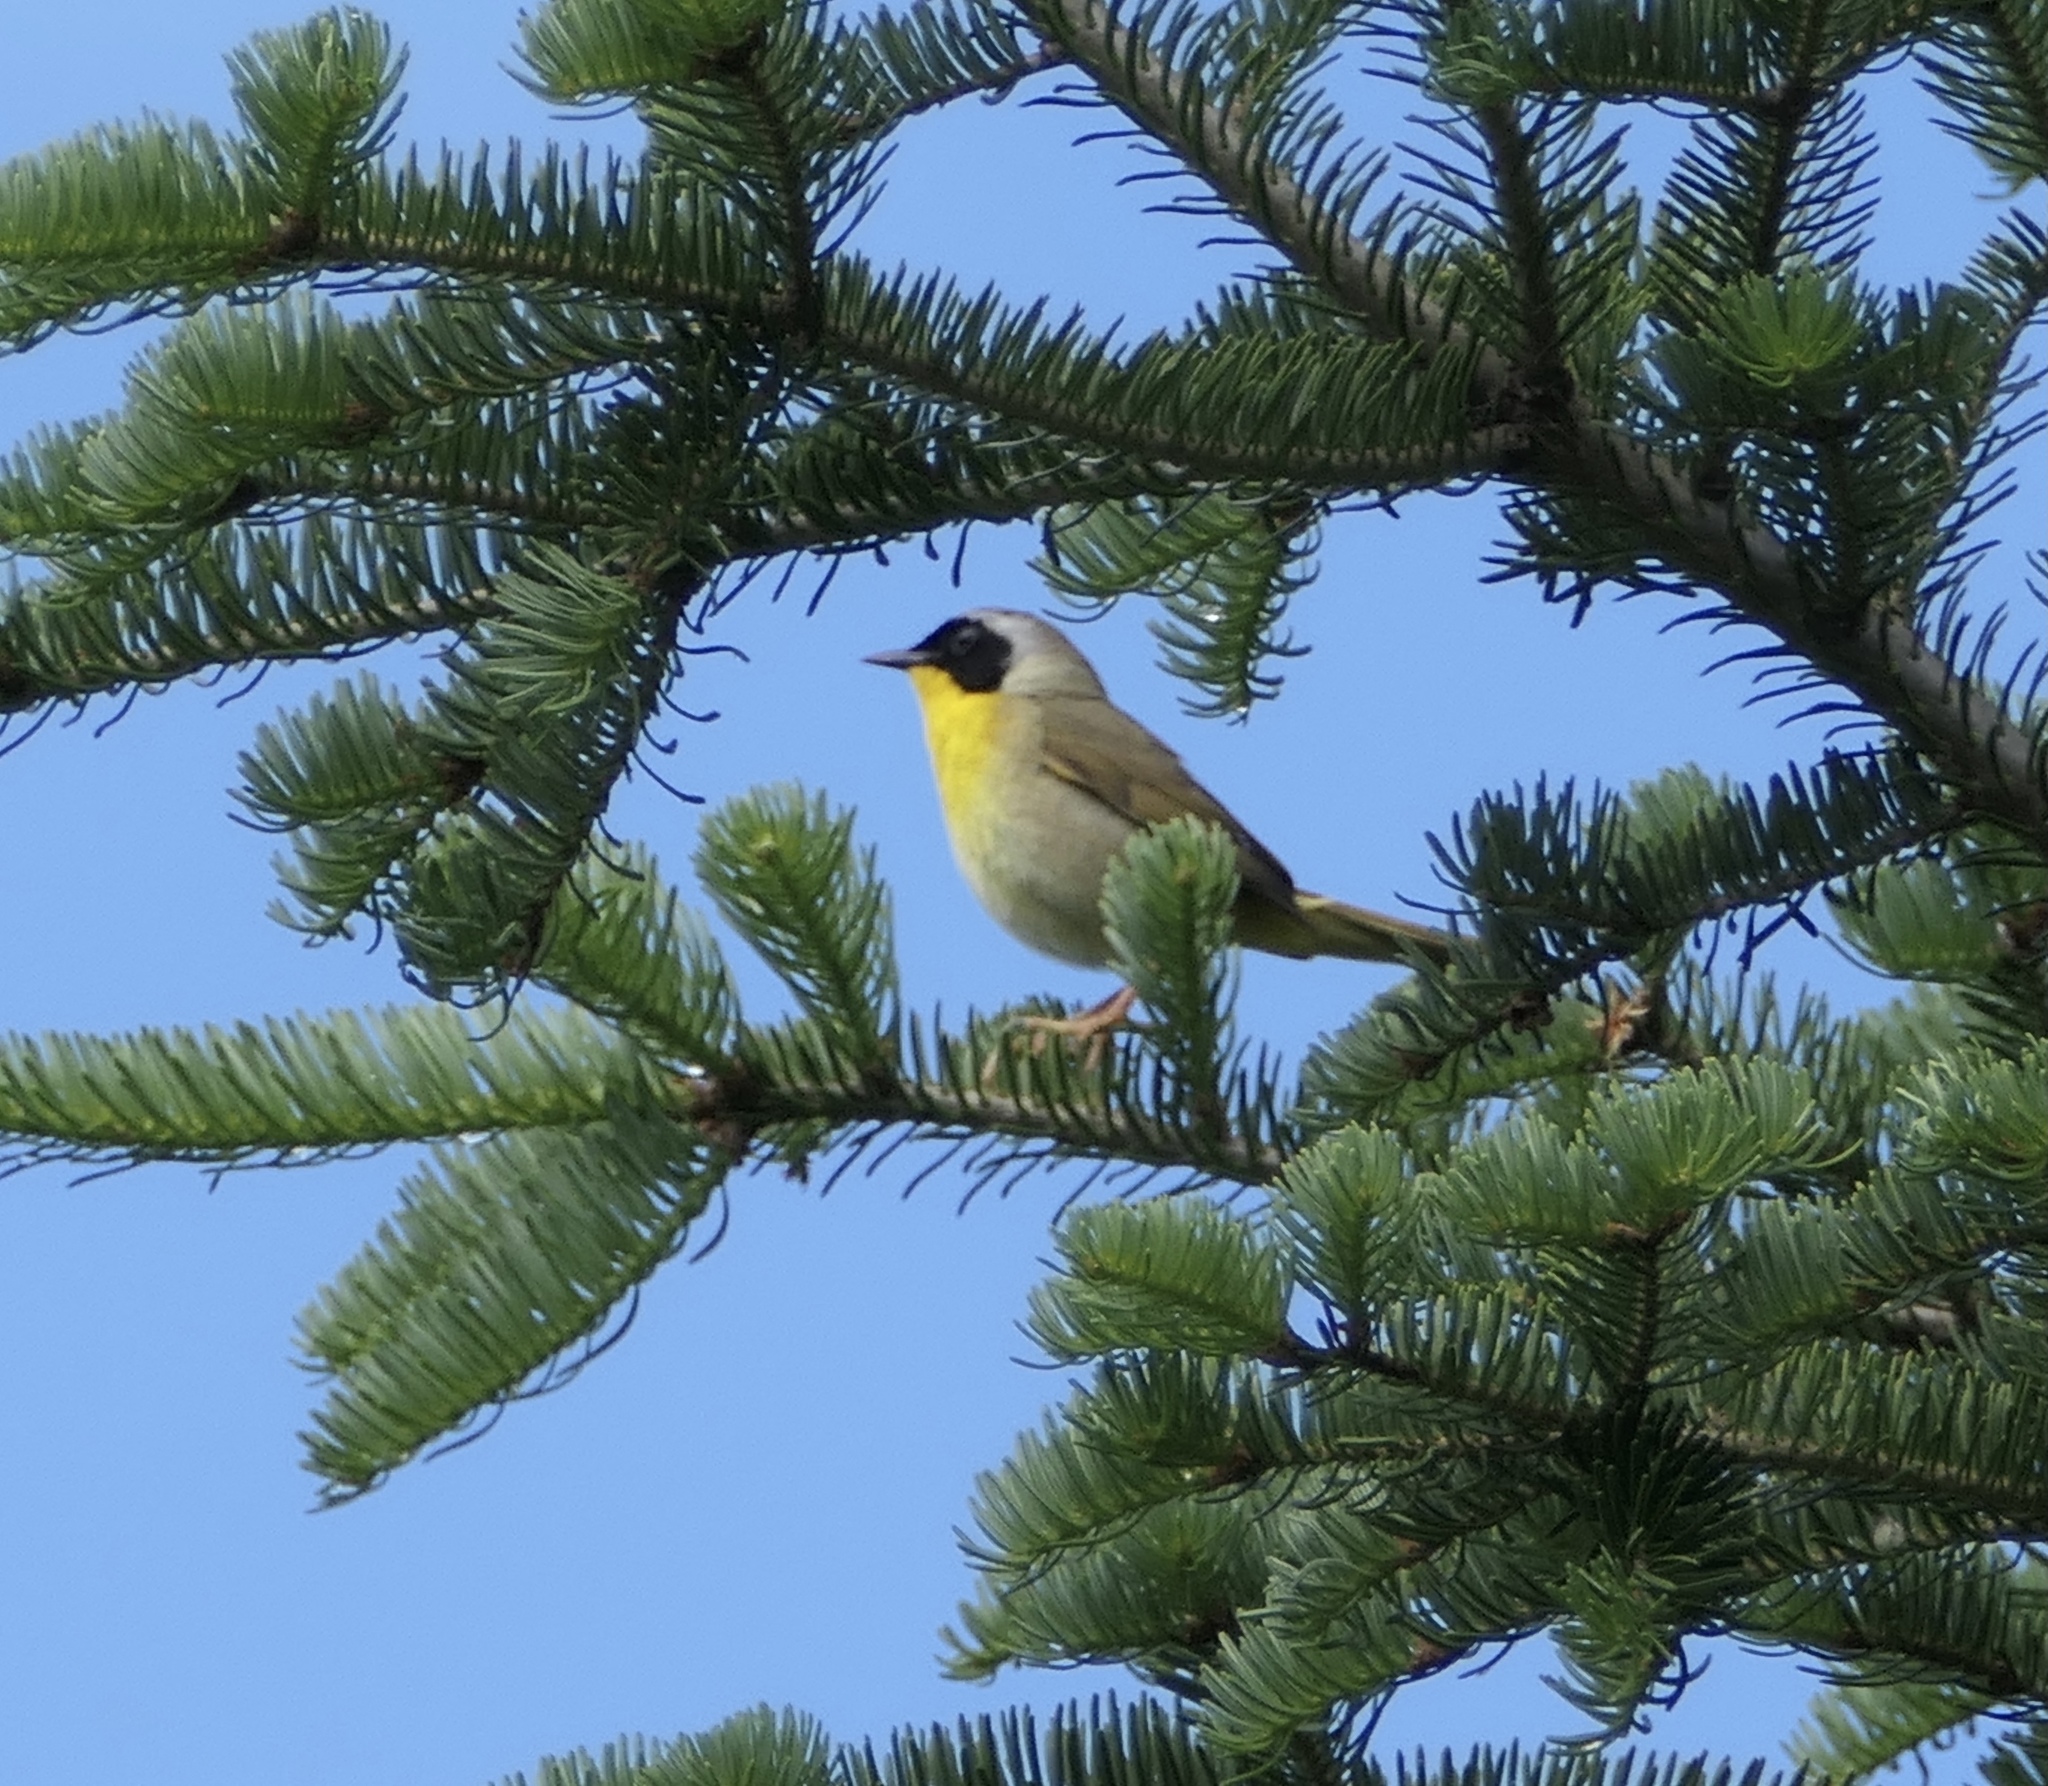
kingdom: Animalia
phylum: Chordata
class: Aves
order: Passeriformes
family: Parulidae
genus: Geothlypis
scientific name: Geothlypis trichas
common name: Common yellowthroat
